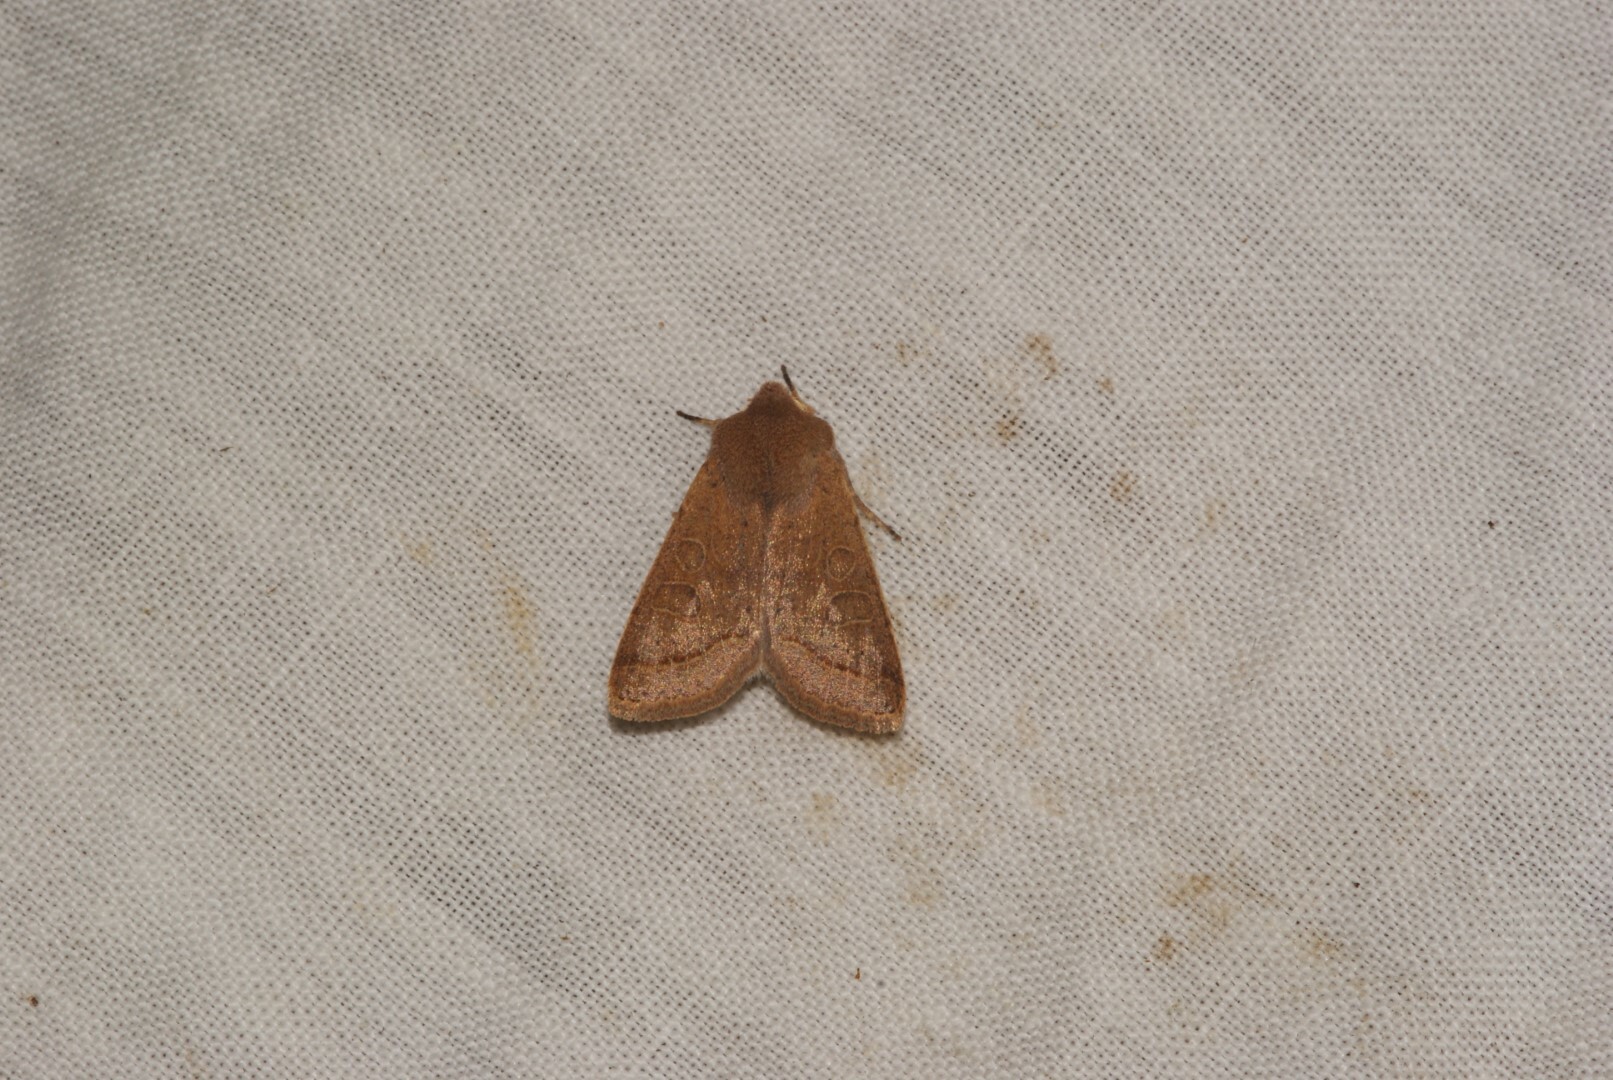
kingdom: Animalia
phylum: Arthropoda
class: Insecta
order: Lepidoptera
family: Noctuidae
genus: Orthosia
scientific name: Orthosia cerasi
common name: Common quaker
